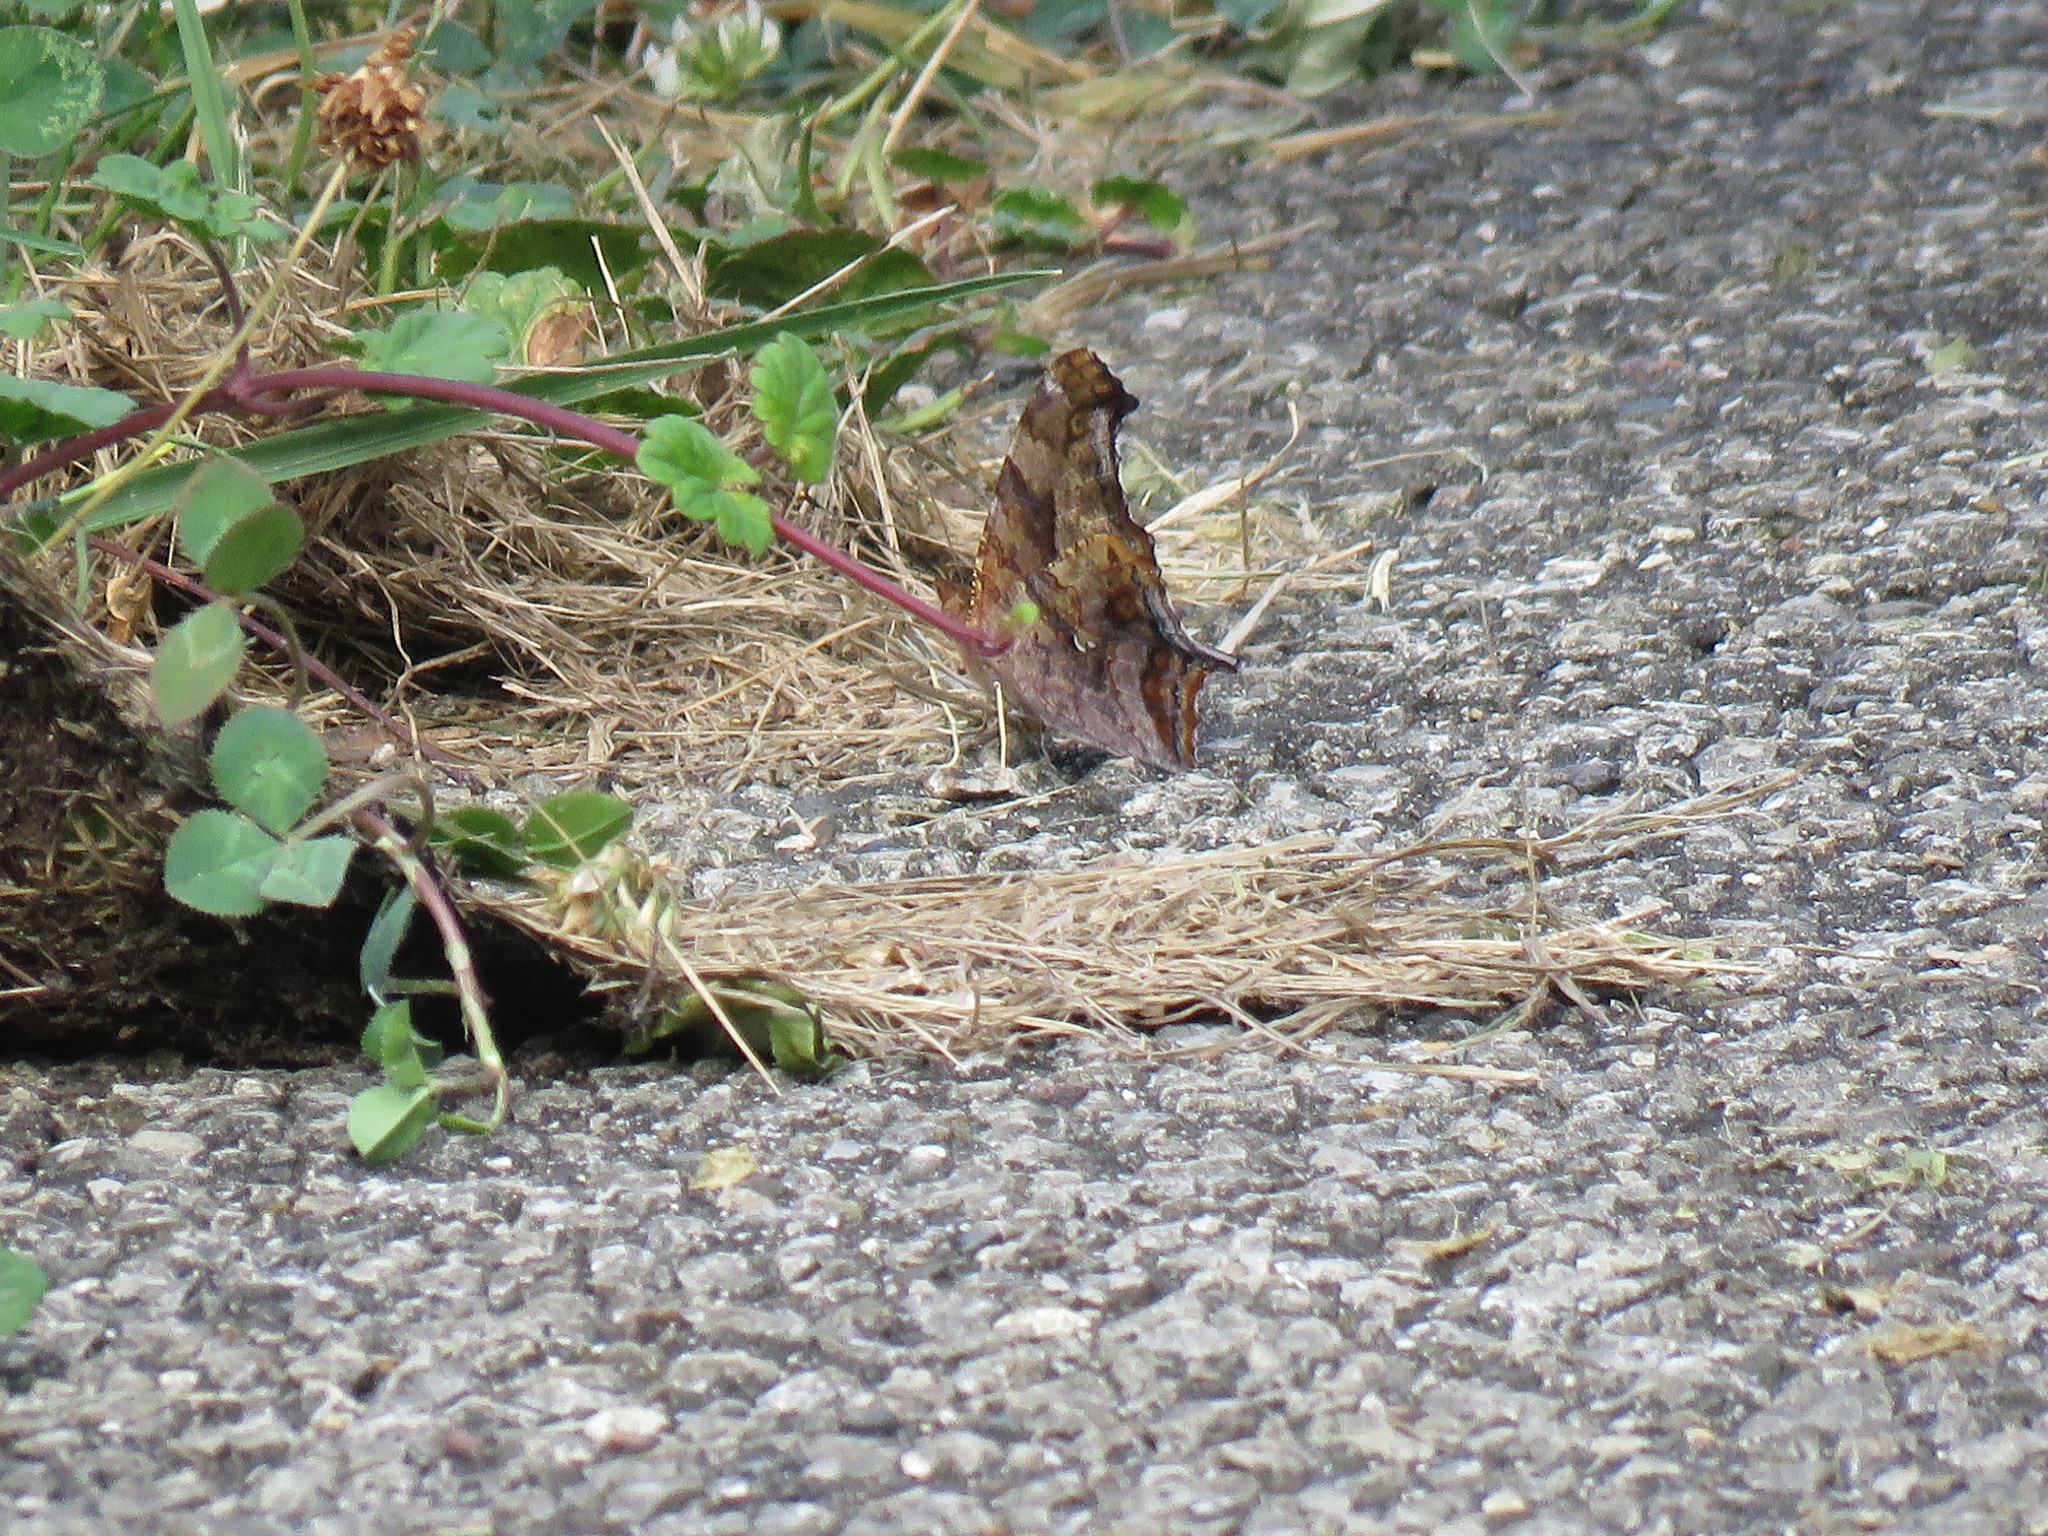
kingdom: Animalia
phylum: Arthropoda
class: Insecta
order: Lepidoptera
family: Nymphalidae
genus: Polygonia
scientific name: Polygonia interrogationis
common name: Question mark
